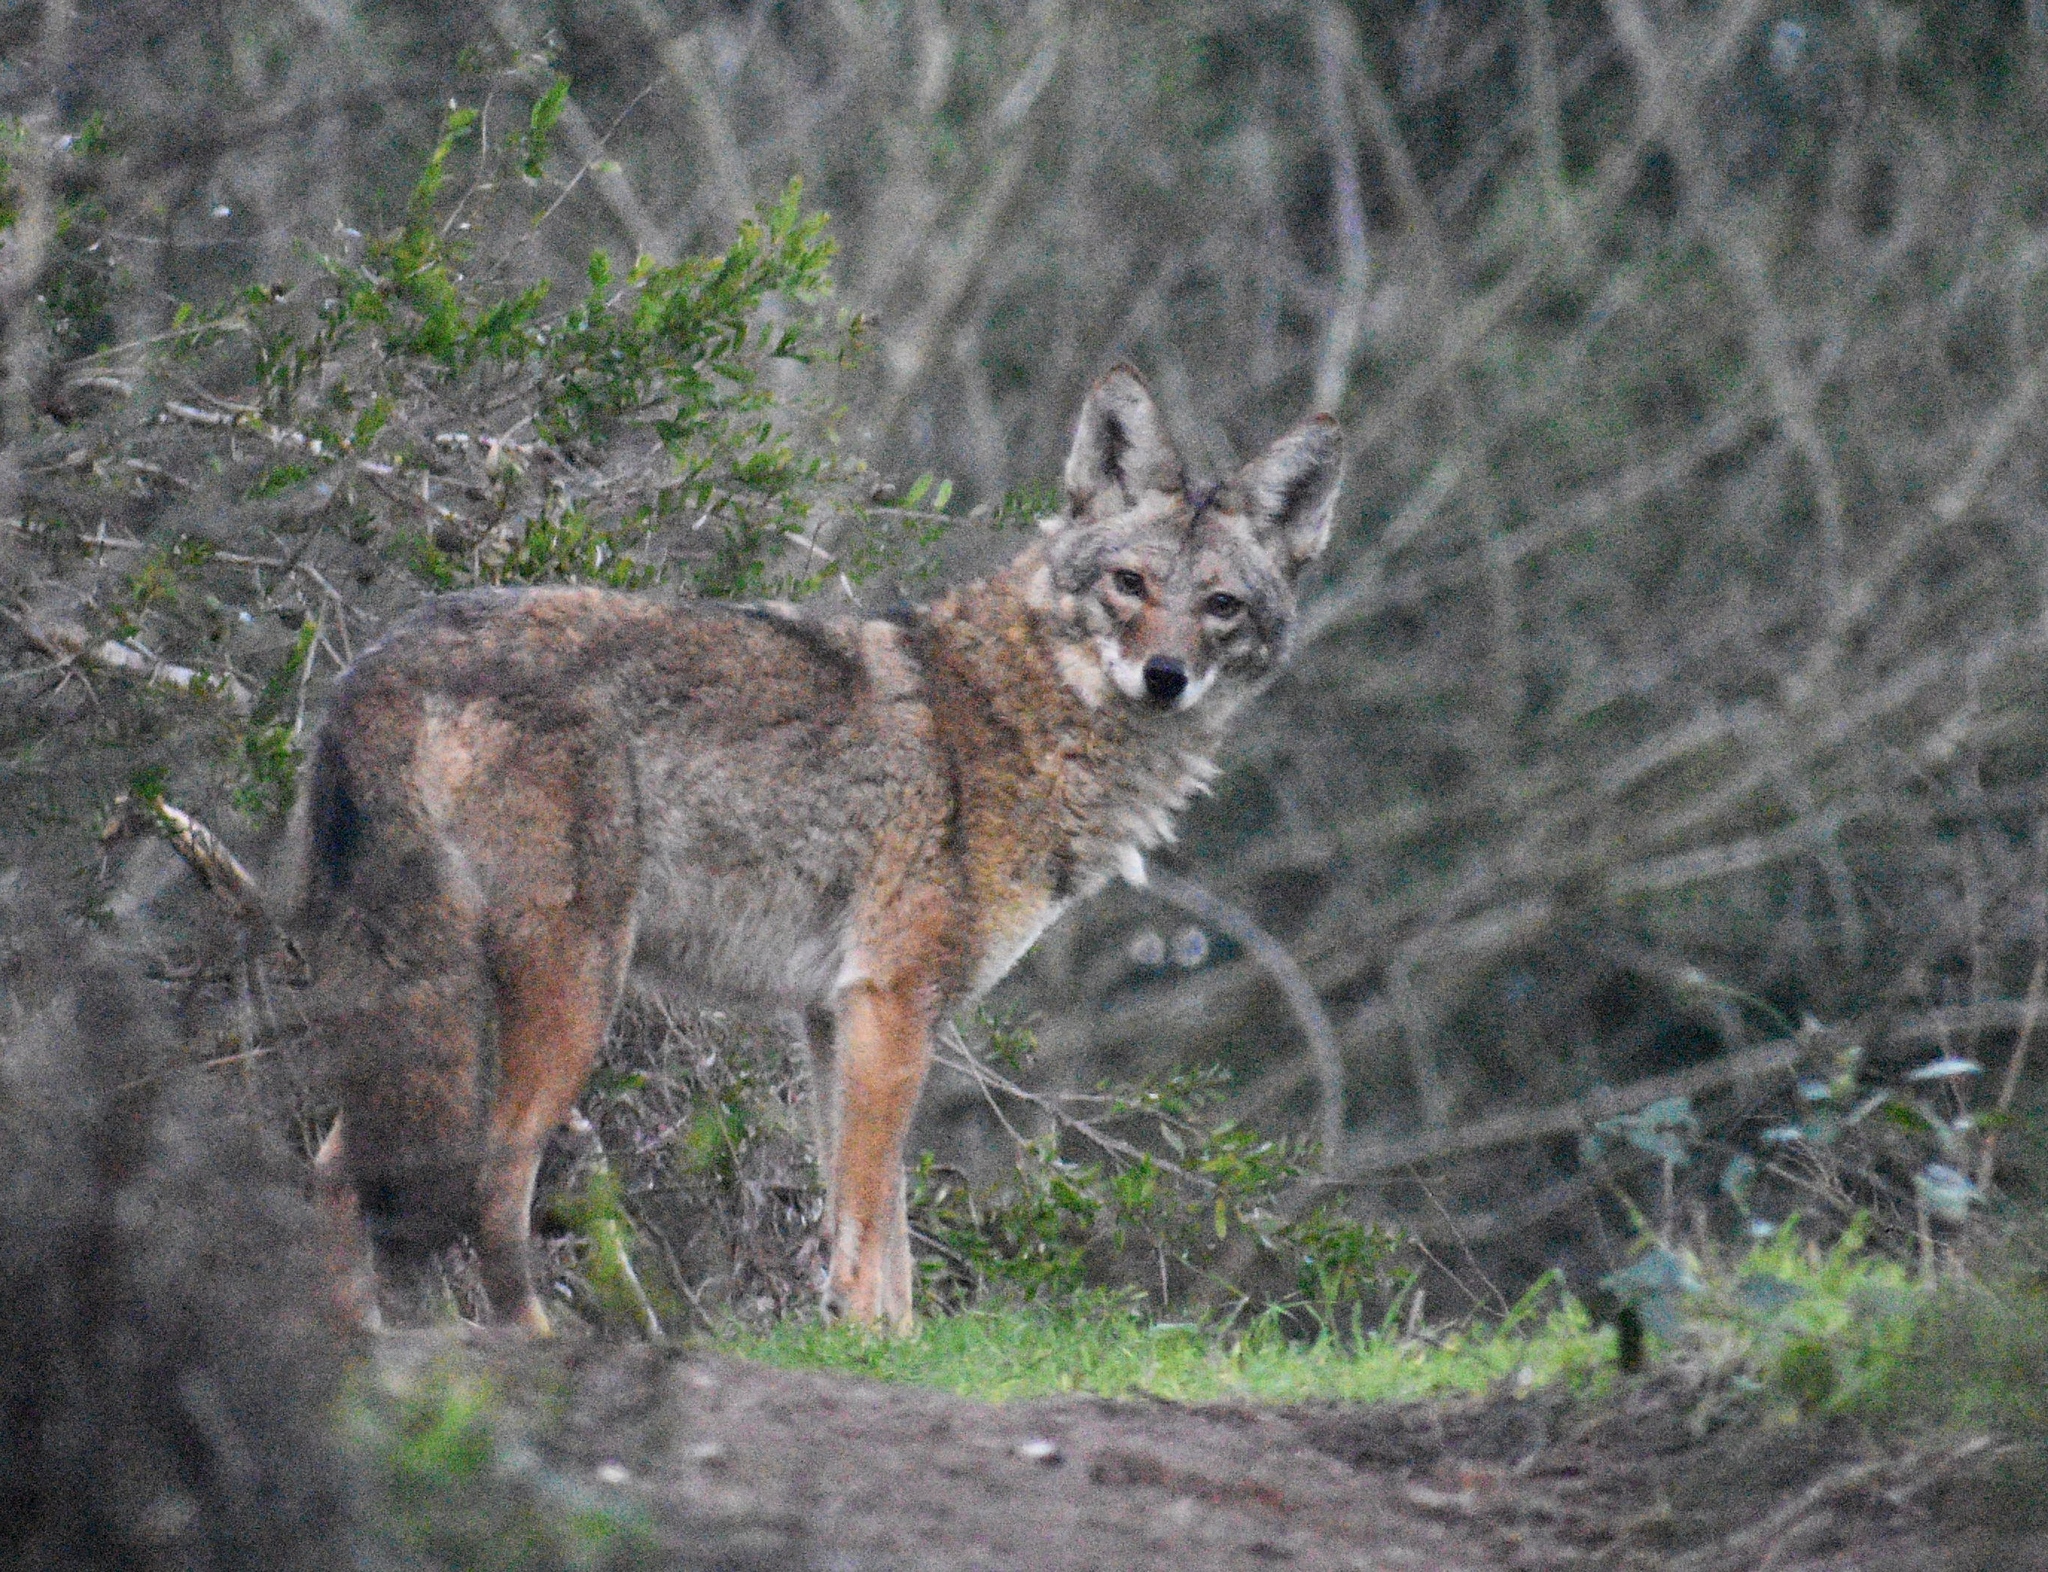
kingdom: Animalia
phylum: Chordata
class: Mammalia
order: Carnivora
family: Canidae
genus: Canis
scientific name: Canis latrans
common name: Coyote
